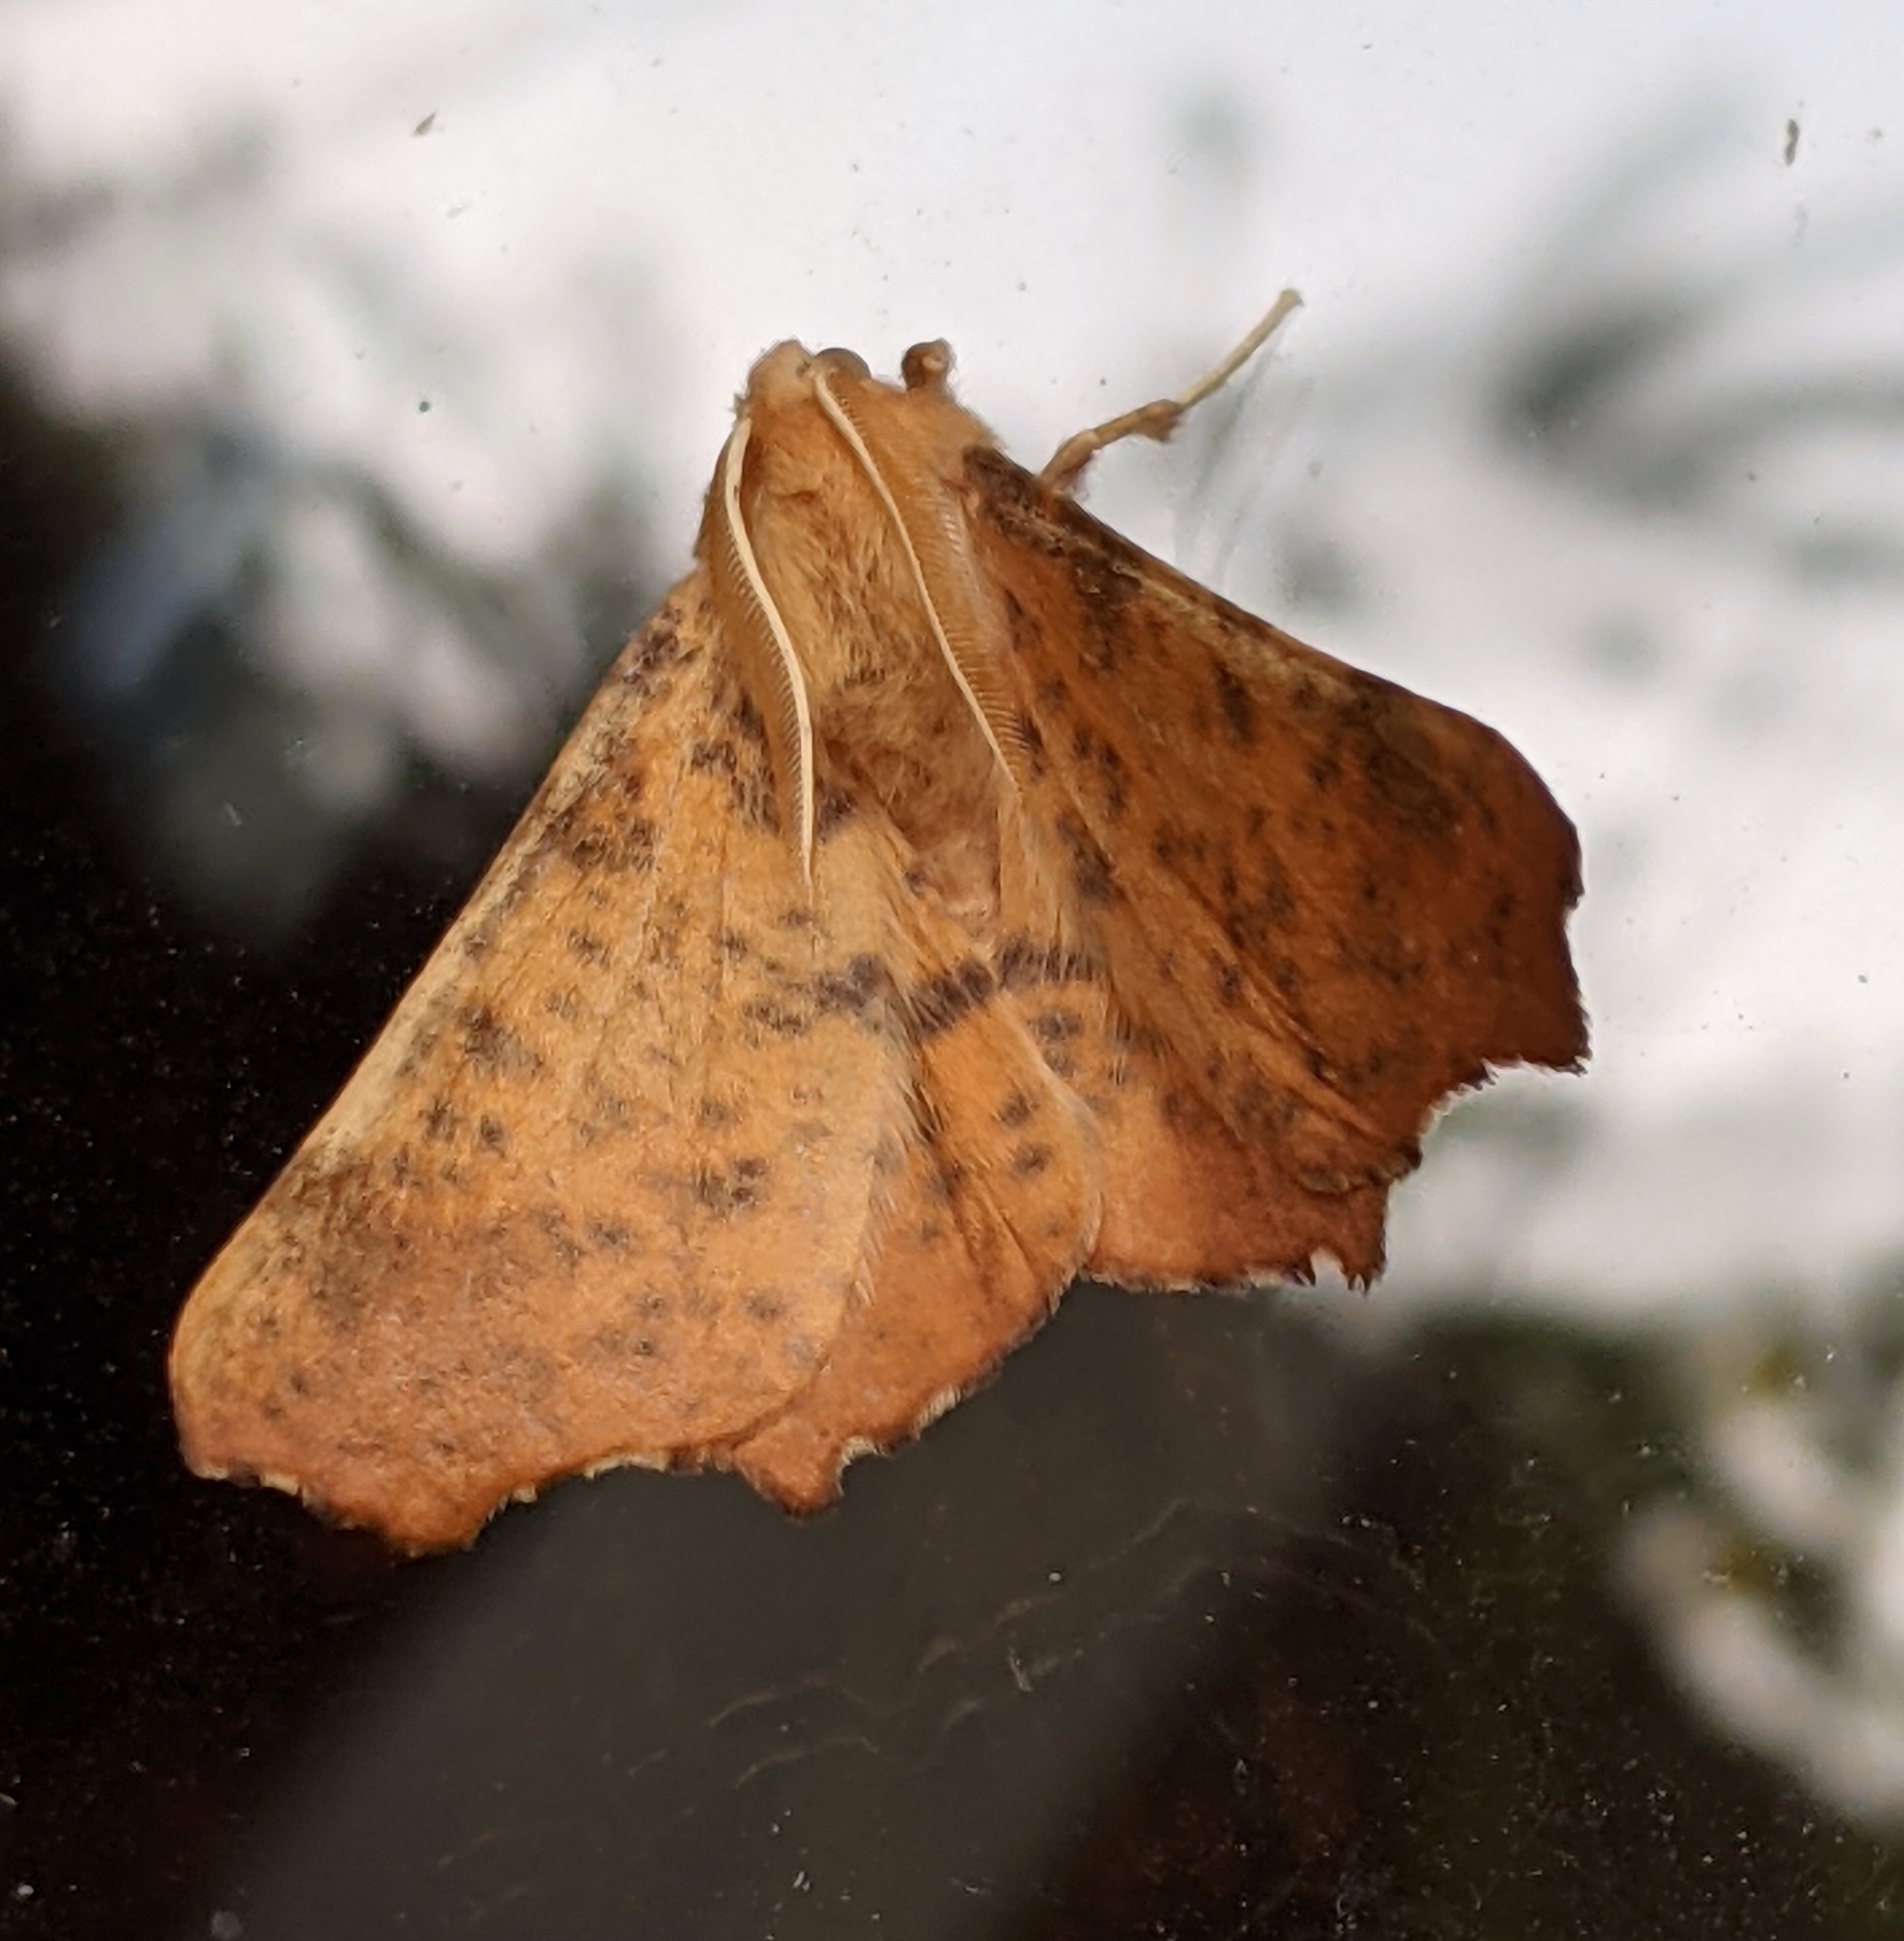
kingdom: Animalia
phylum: Arthropoda
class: Insecta
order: Lepidoptera
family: Geometridae
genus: Ennomos
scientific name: Ennomos magnaria
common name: Maple spanworm
